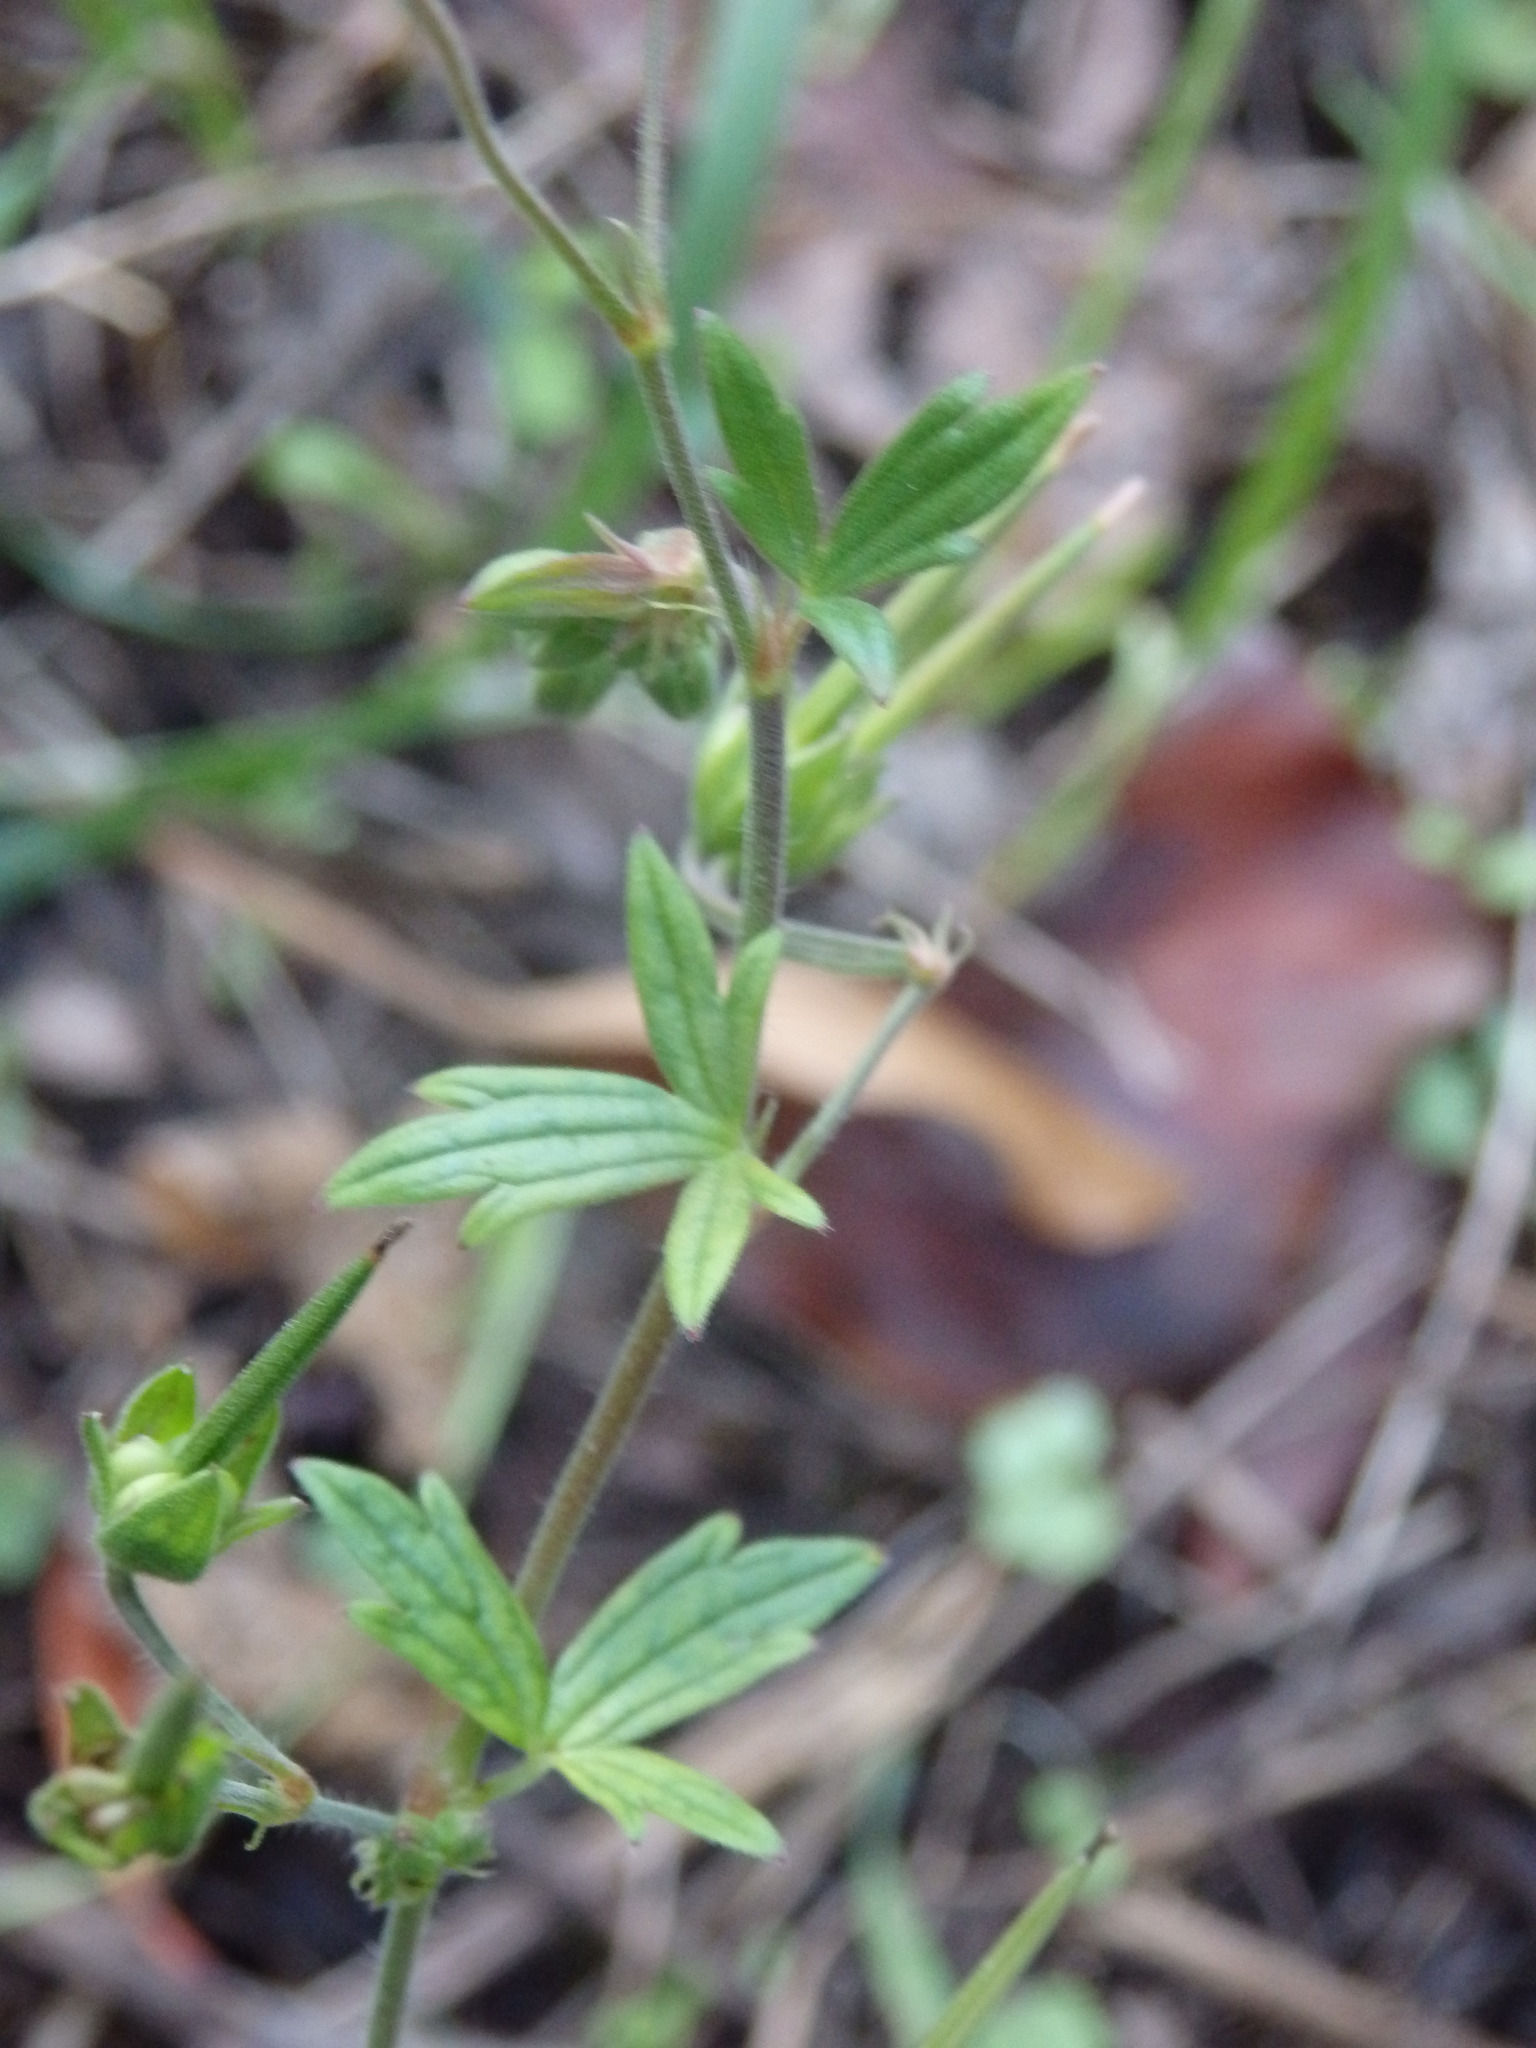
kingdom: Plantae
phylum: Tracheophyta
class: Magnoliopsida
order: Geraniales
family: Geraniaceae
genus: Geranium
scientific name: Geranium pyrenaicum
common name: Hedgerow crane's-bill
